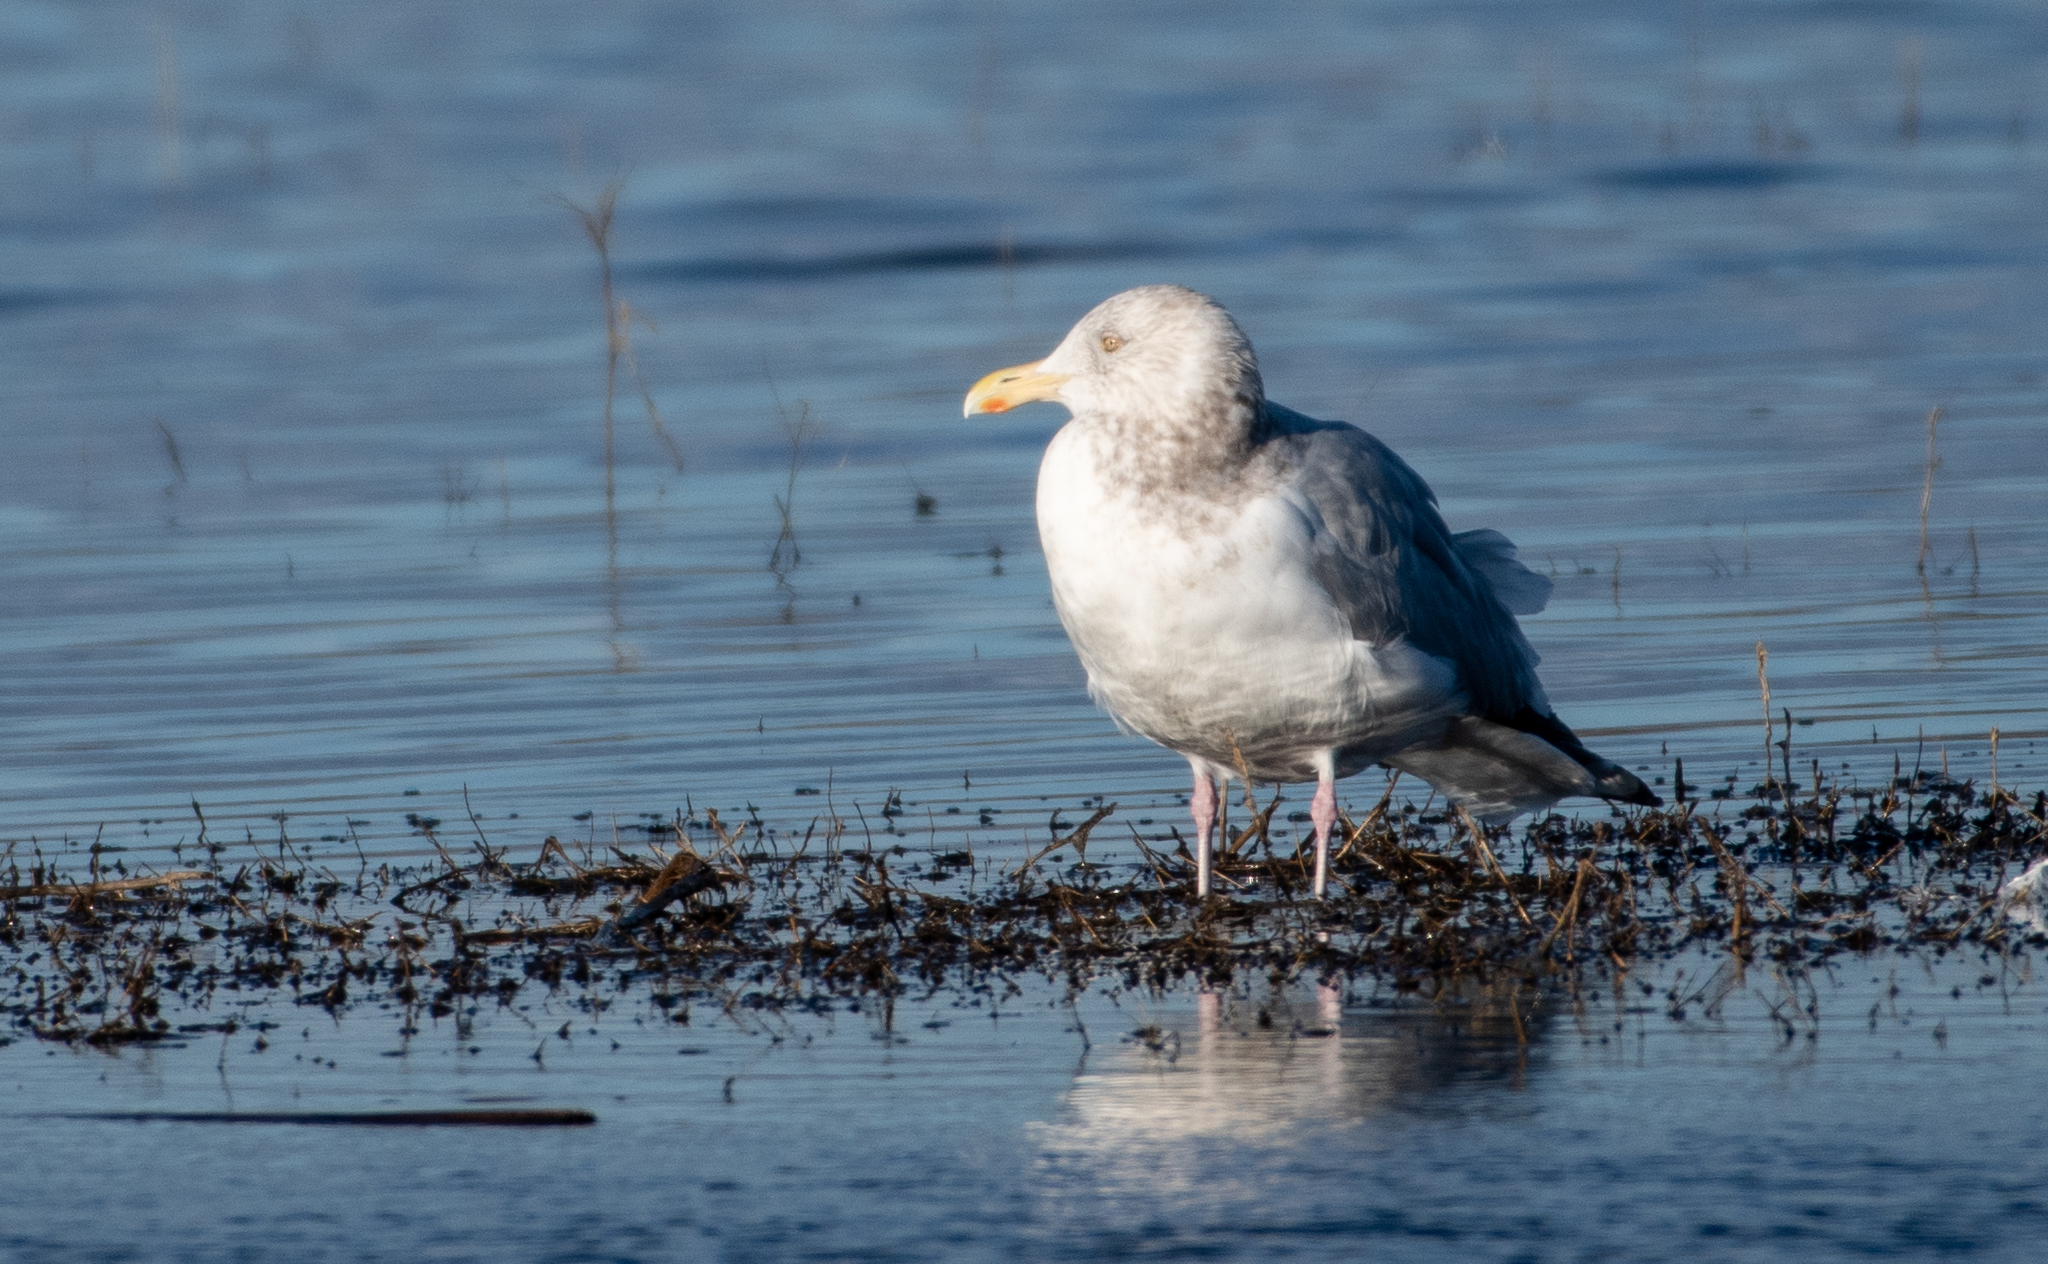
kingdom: Animalia
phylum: Chordata
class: Aves
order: Charadriiformes
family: Laridae
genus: Larus
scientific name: Larus argentatus
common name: Herring gull
